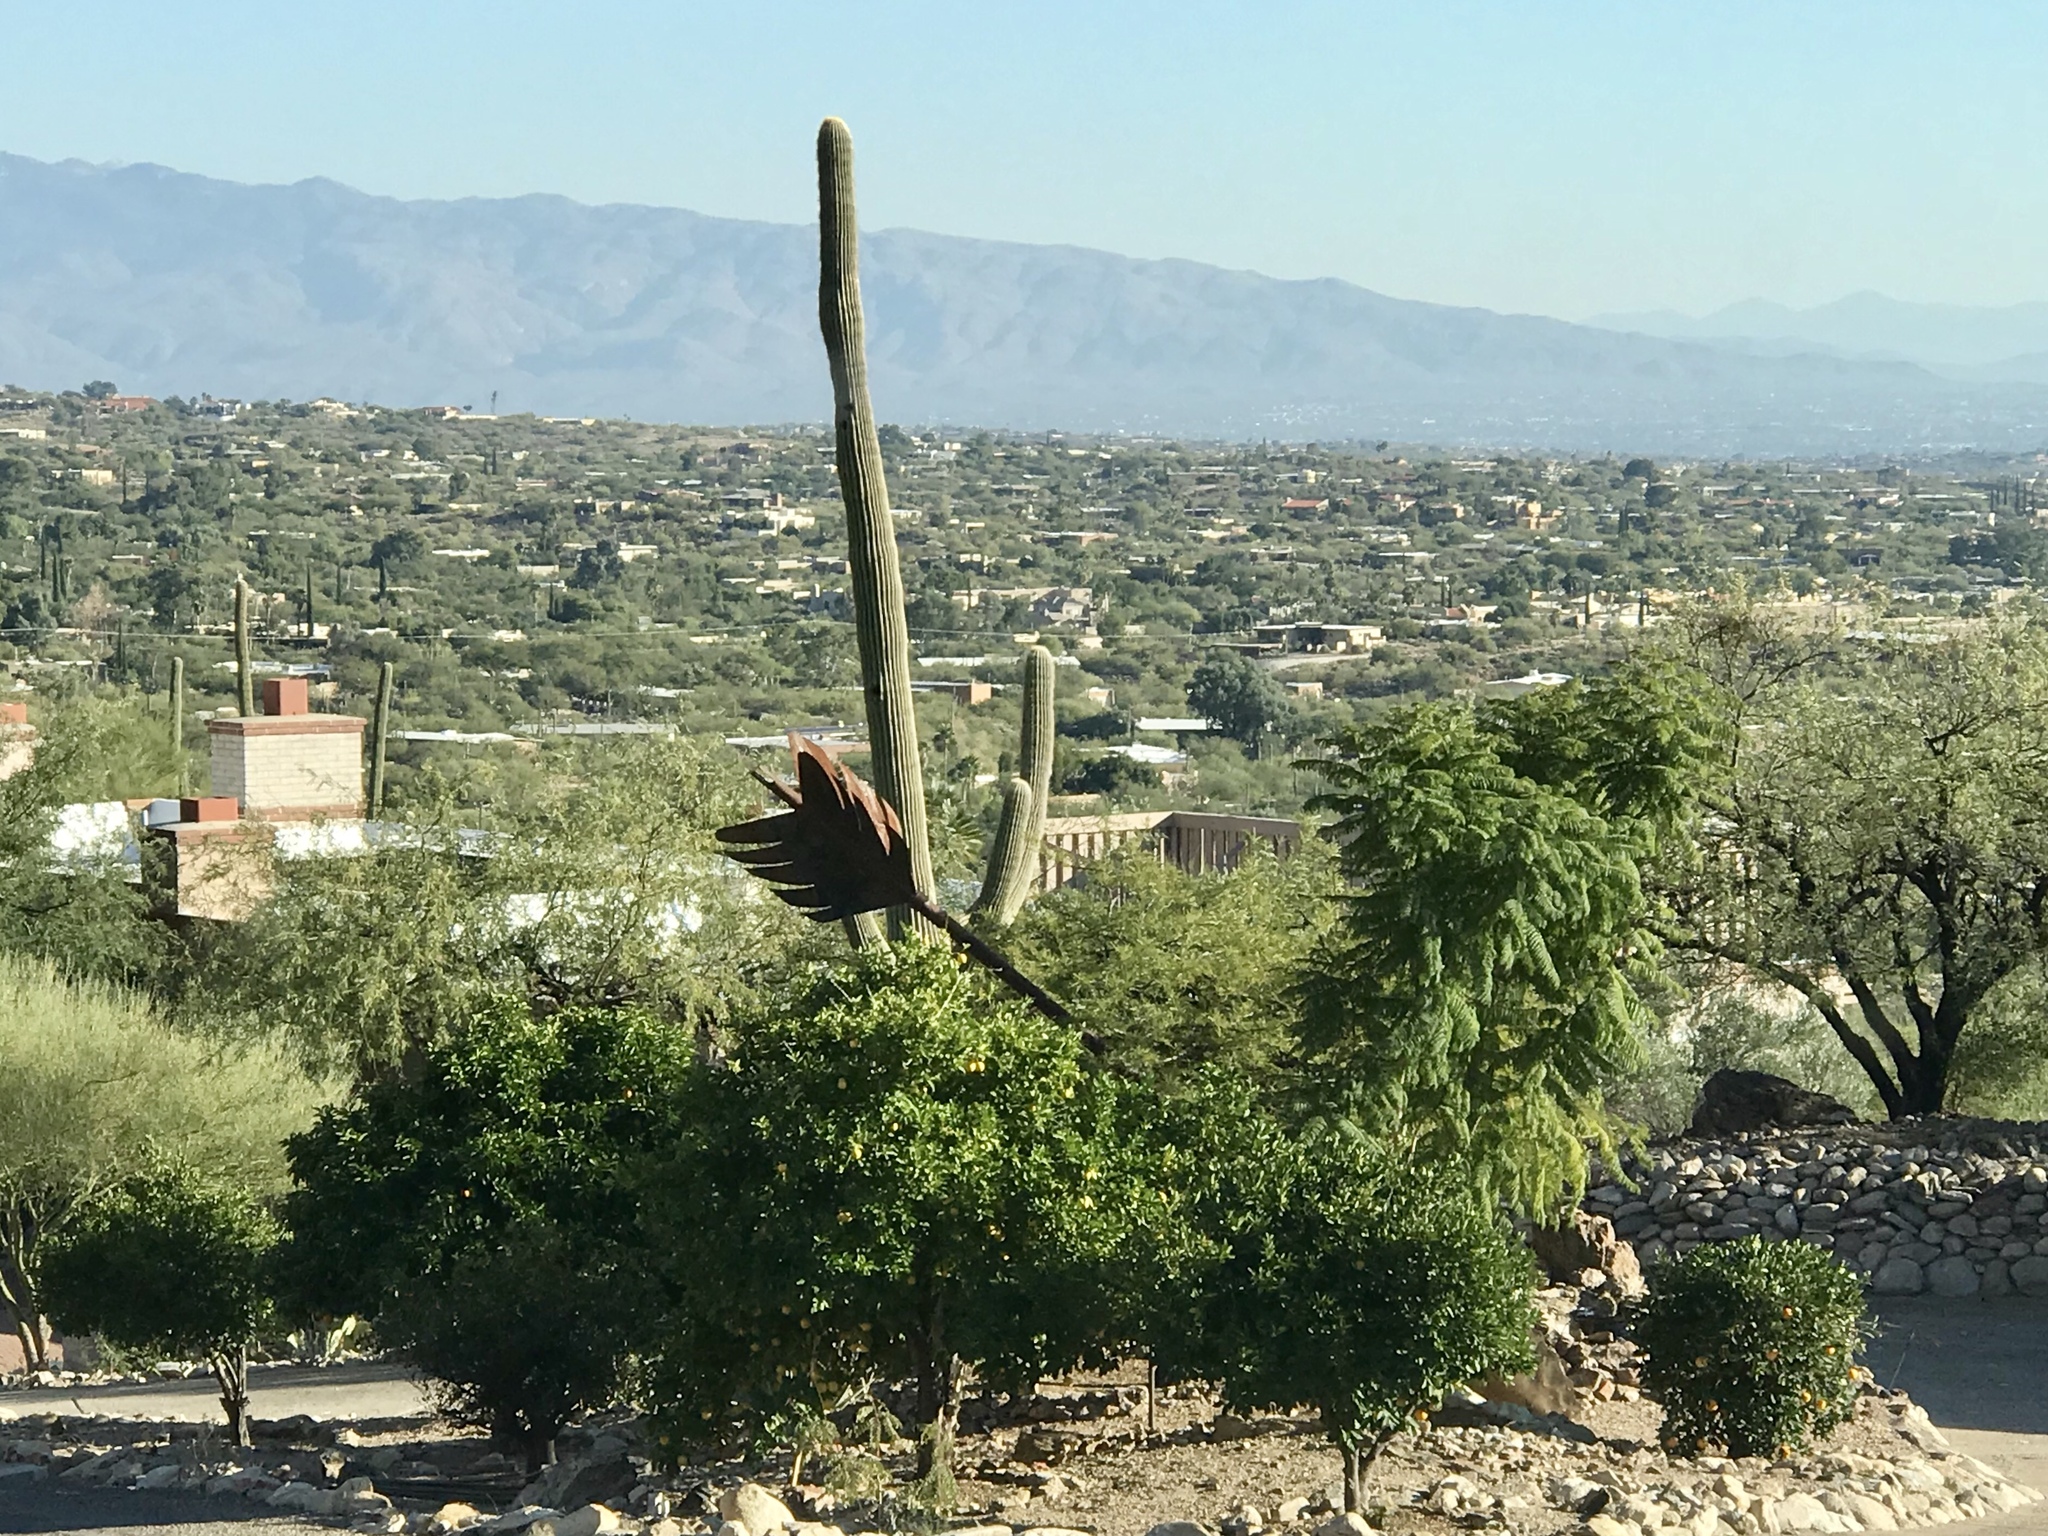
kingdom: Plantae
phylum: Tracheophyta
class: Magnoliopsida
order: Caryophyllales
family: Cactaceae
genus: Carnegiea
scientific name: Carnegiea gigantea
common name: Saguaro
